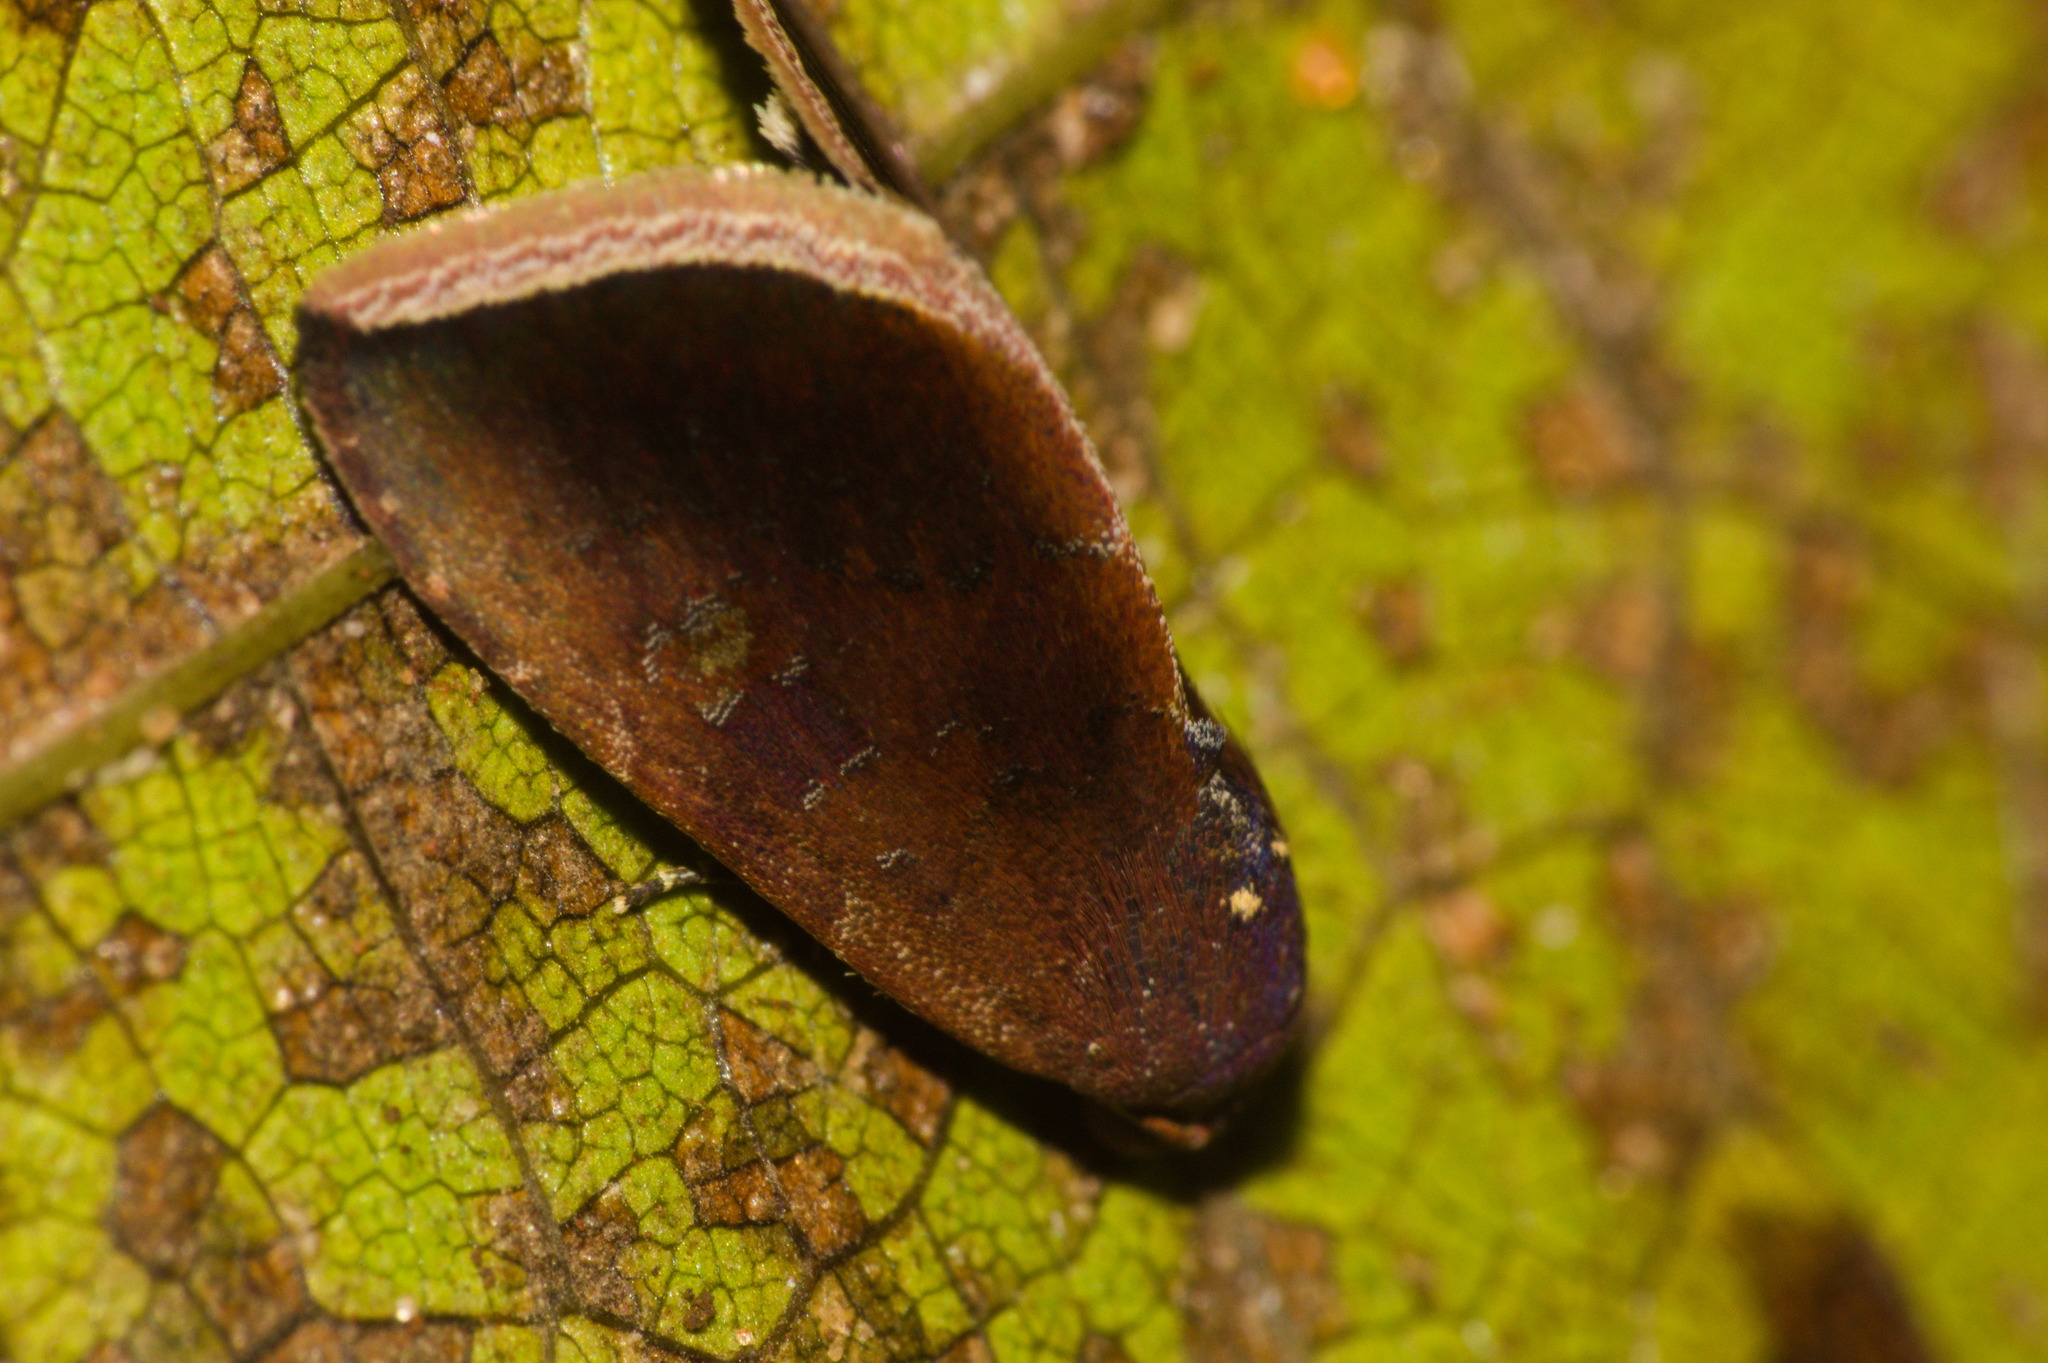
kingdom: Animalia
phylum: Arthropoda
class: Insecta
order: Lepidoptera
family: Noctuidae
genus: Micrathetis
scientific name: Micrathetis canifimbria
